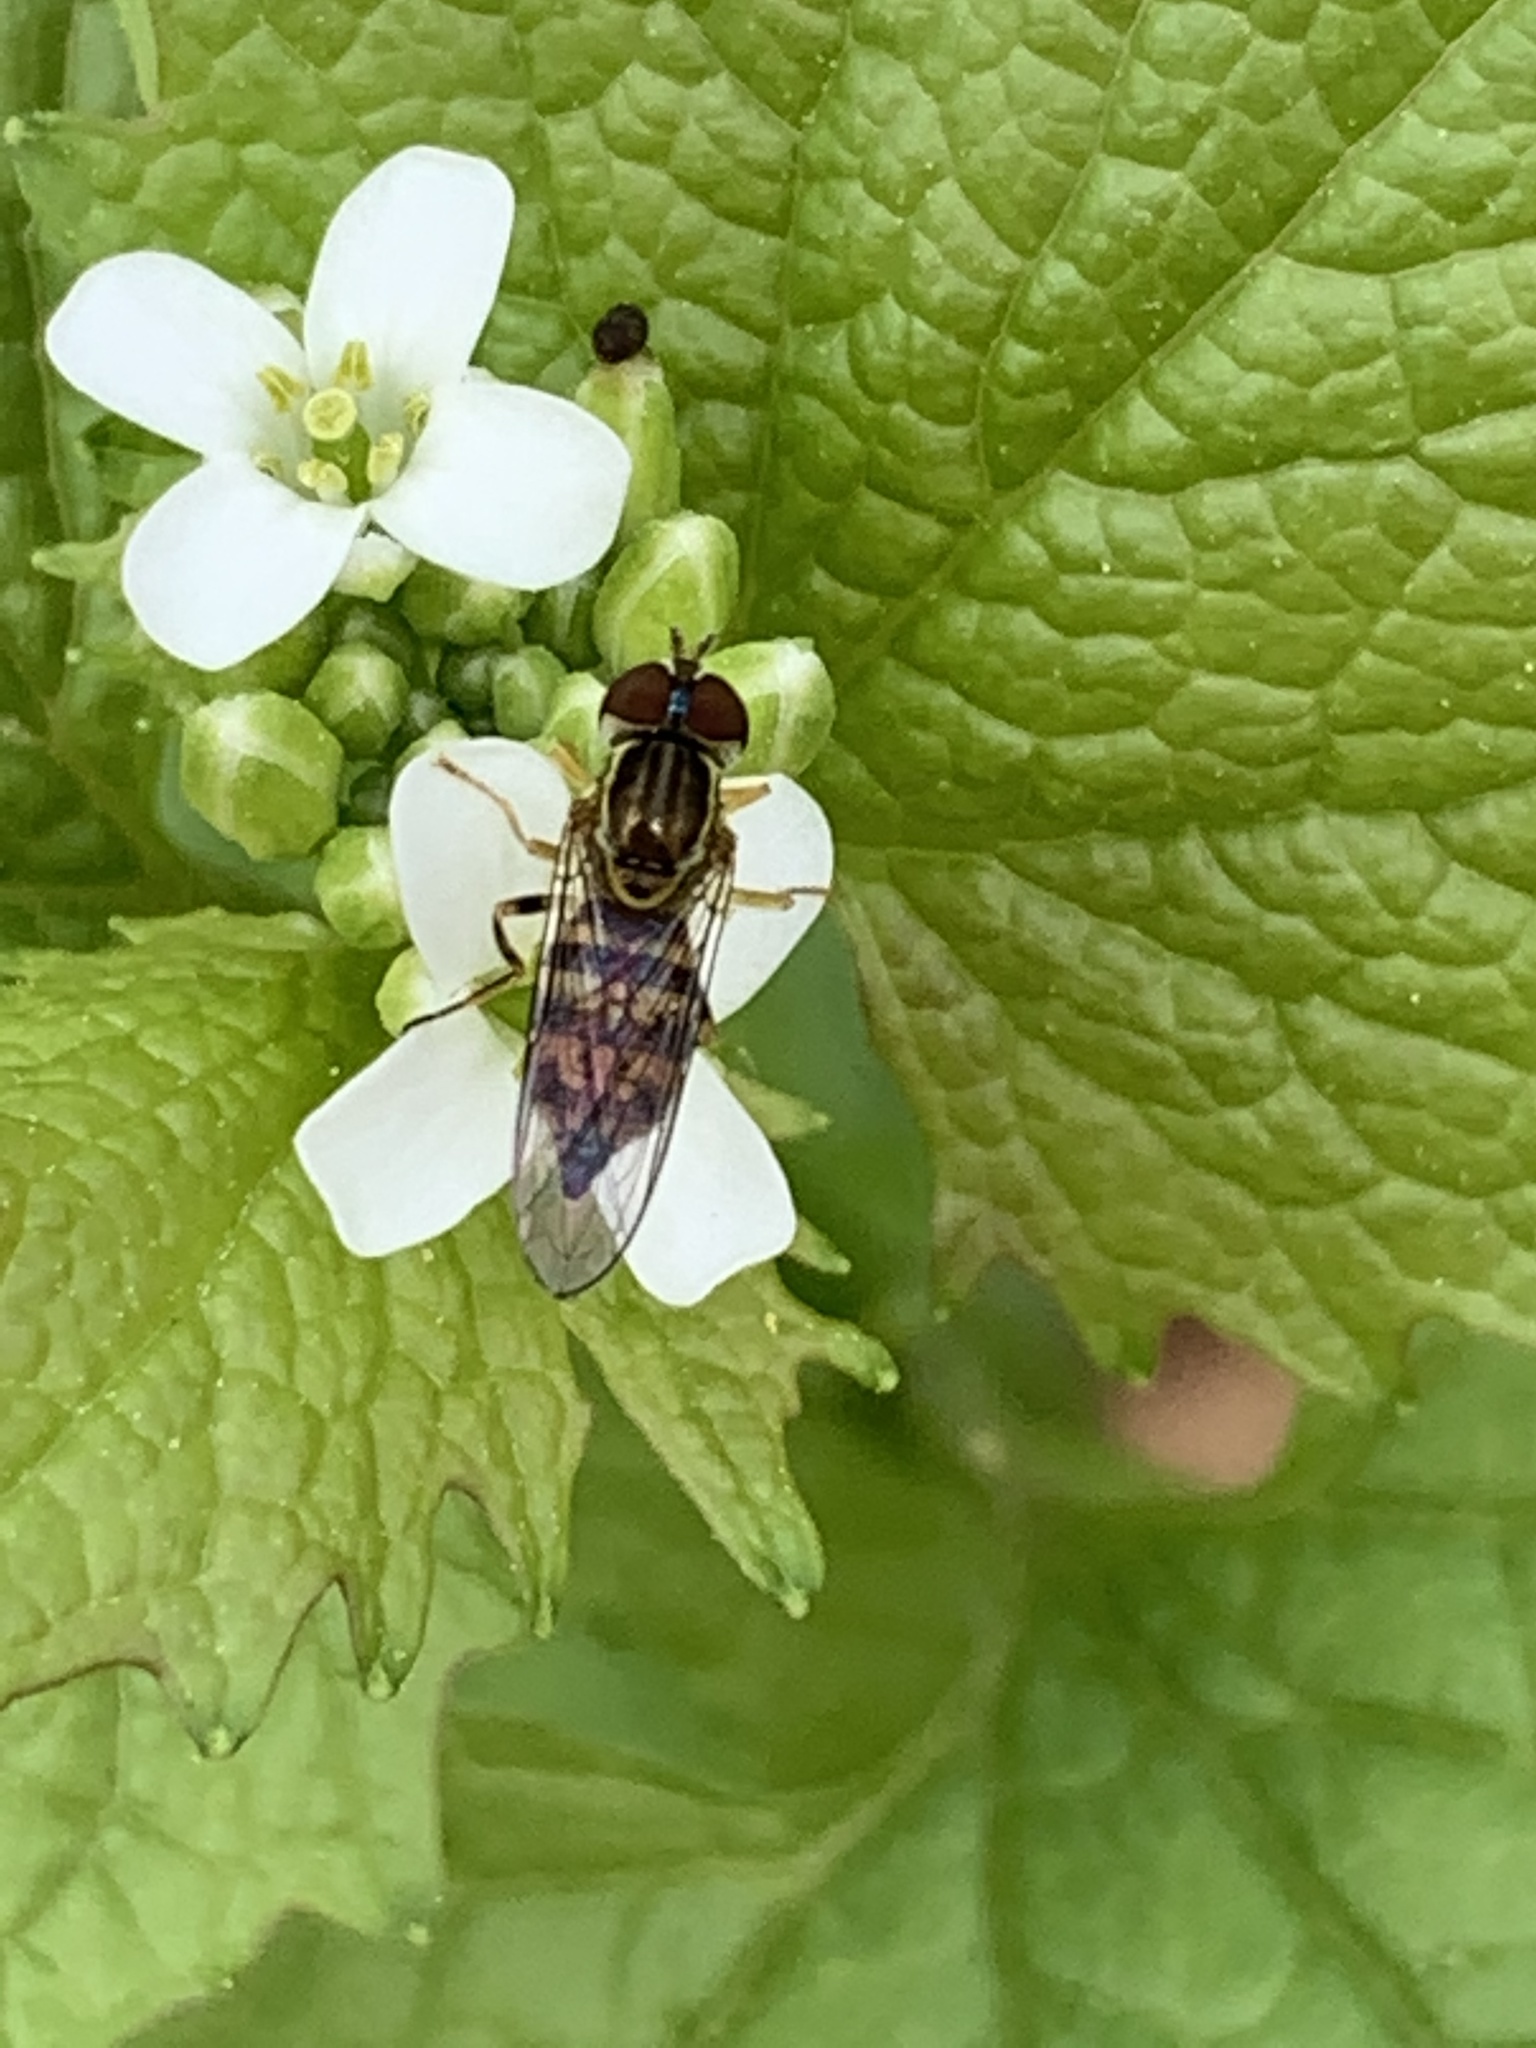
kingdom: Animalia
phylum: Arthropoda
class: Insecta
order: Diptera
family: Syrphidae
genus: Toxomerus
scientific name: Toxomerus geminatus
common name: Eastern calligrapher
